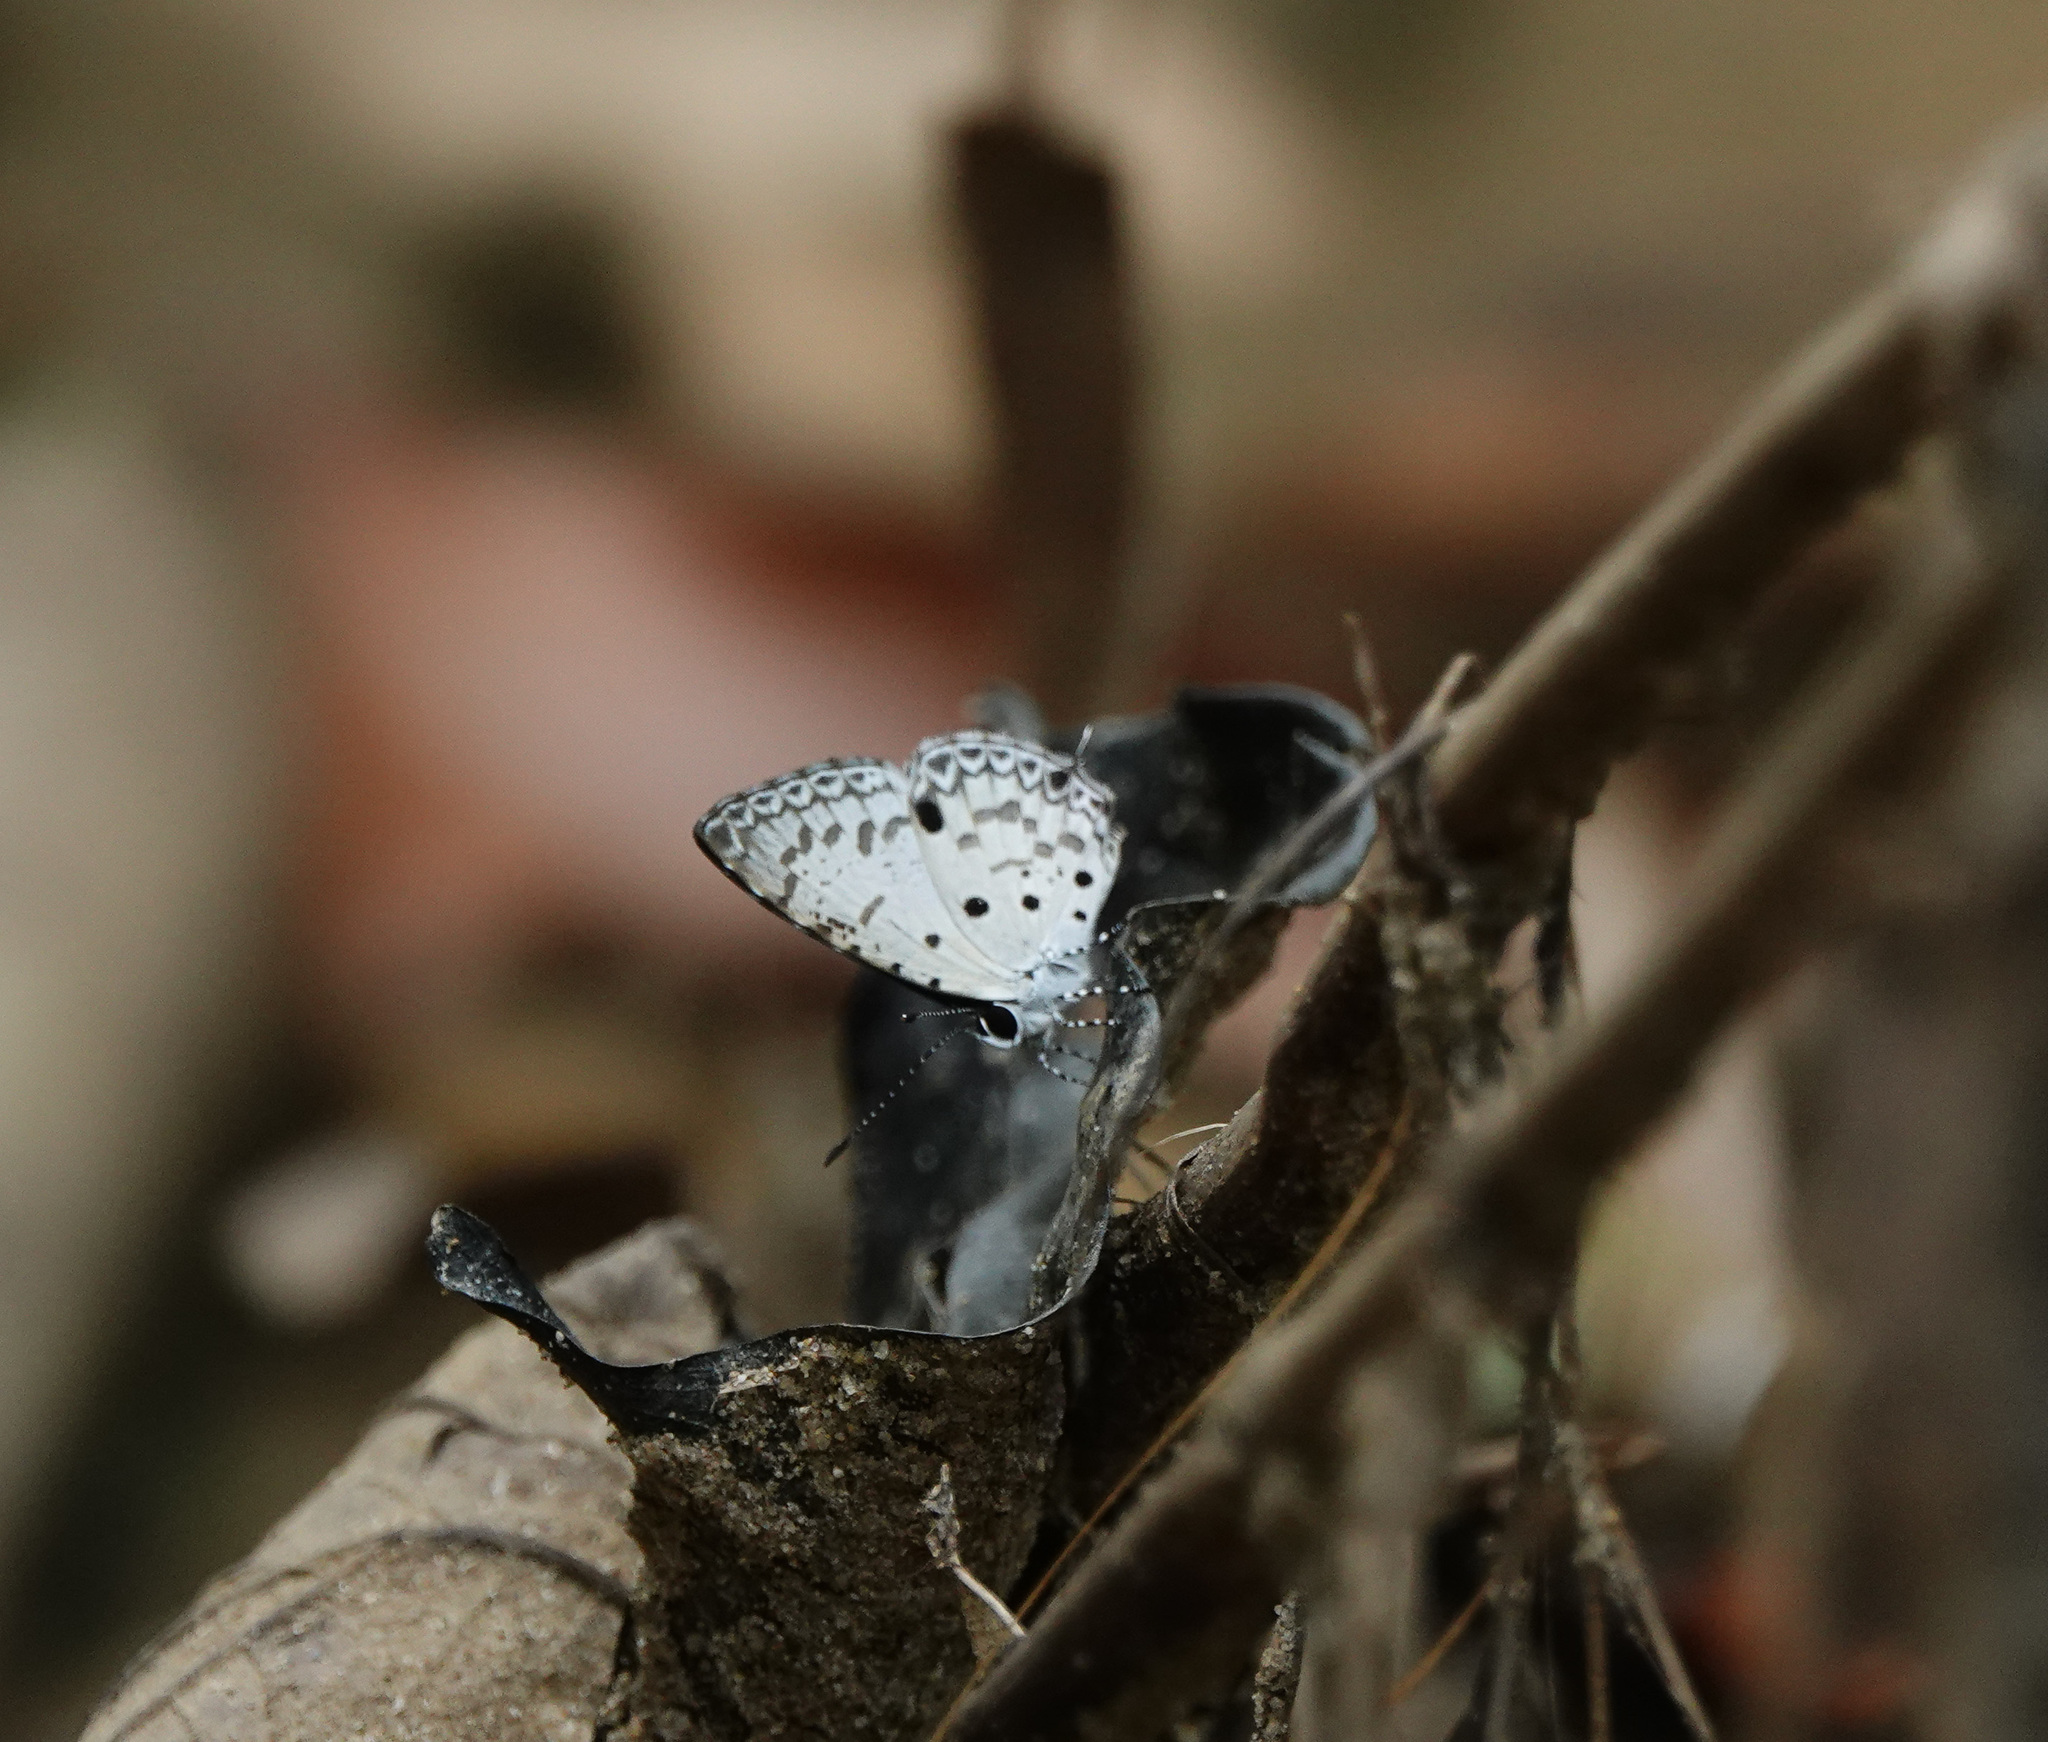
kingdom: Animalia
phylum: Arthropoda
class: Insecta
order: Lepidoptera
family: Lycaenidae
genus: Megisba
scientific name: Megisba malaya
